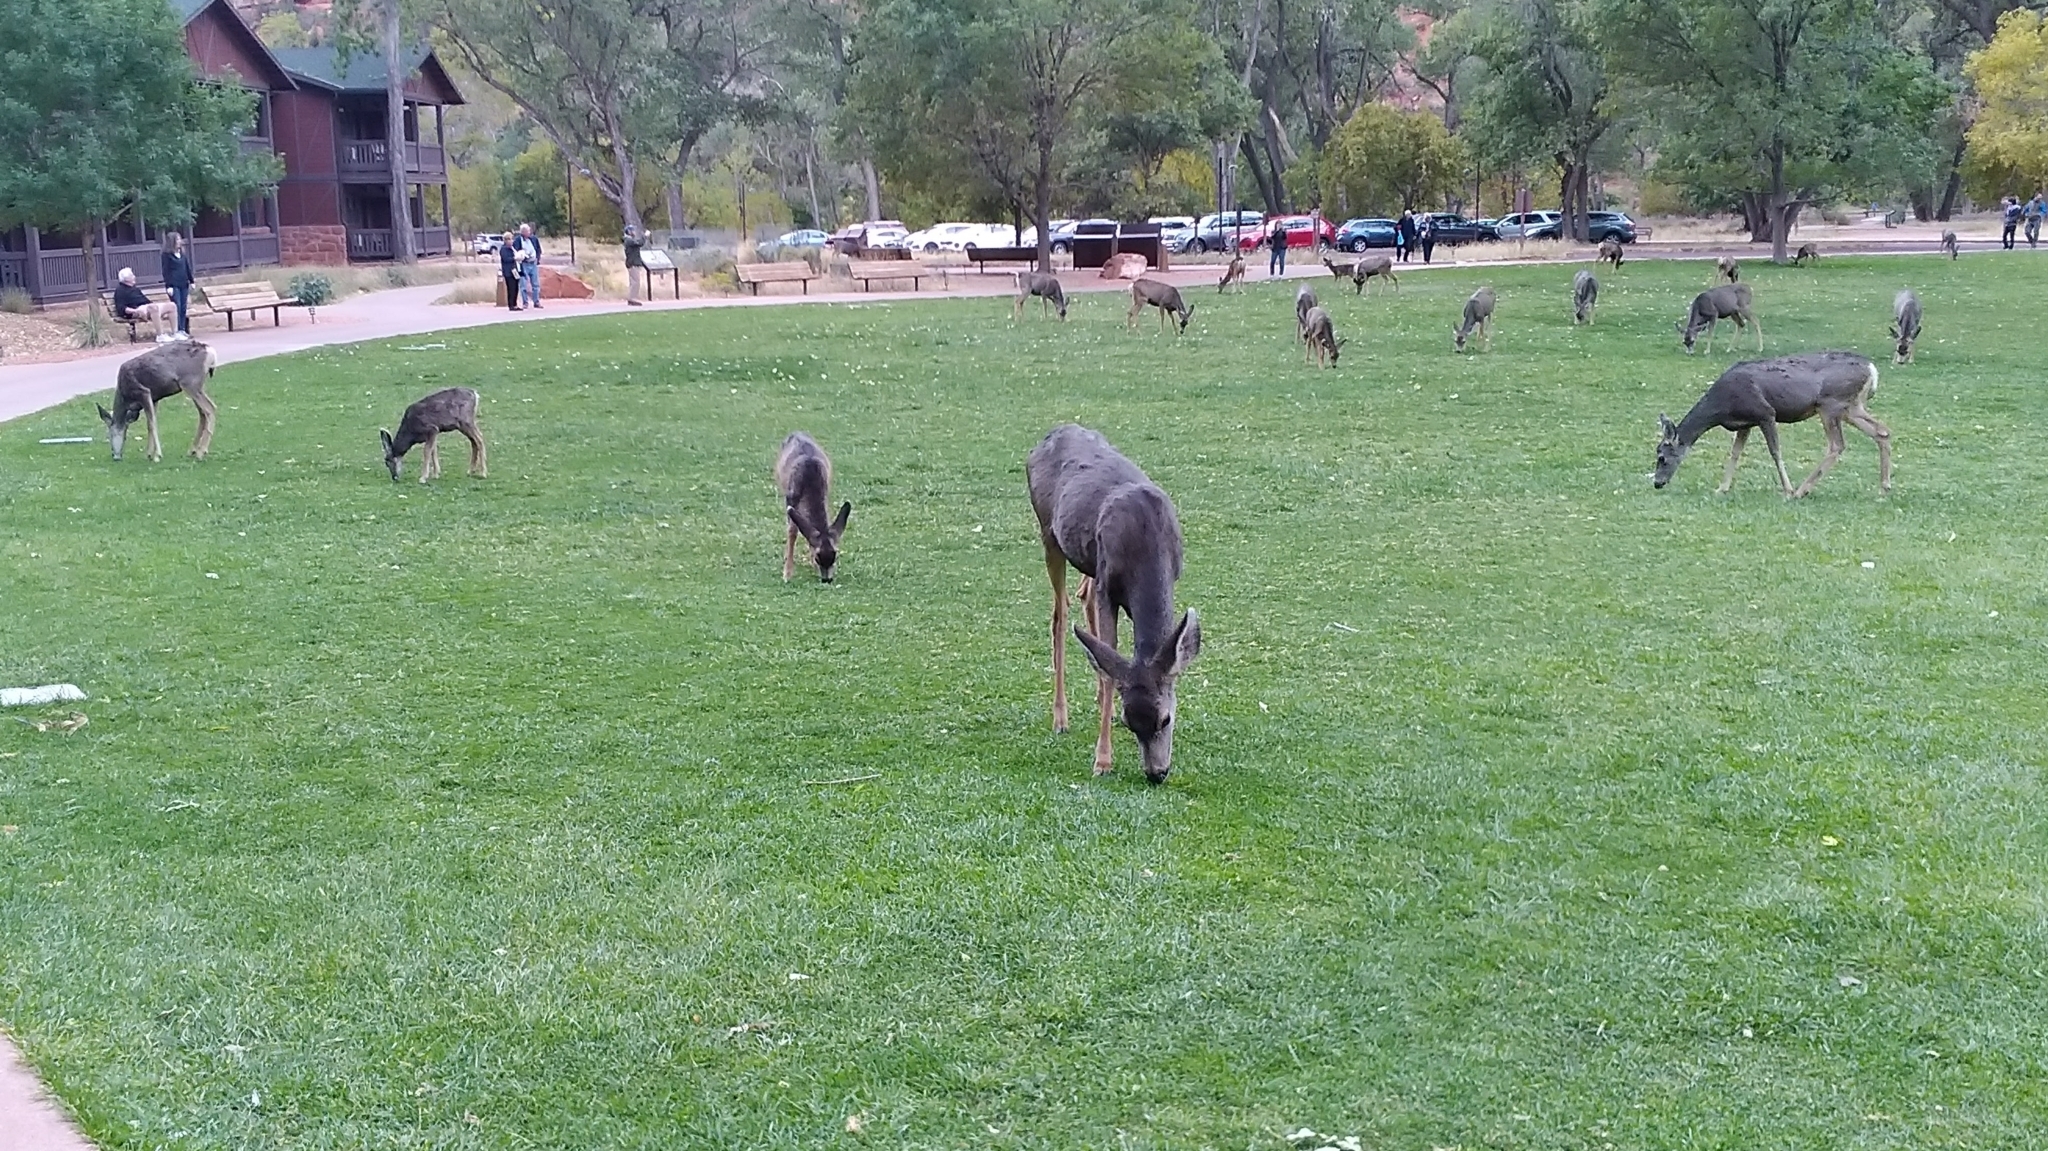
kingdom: Animalia
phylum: Chordata
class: Mammalia
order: Artiodactyla
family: Cervidae
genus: Odocoileus
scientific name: Odocoileus hemionus
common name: Mule deer
